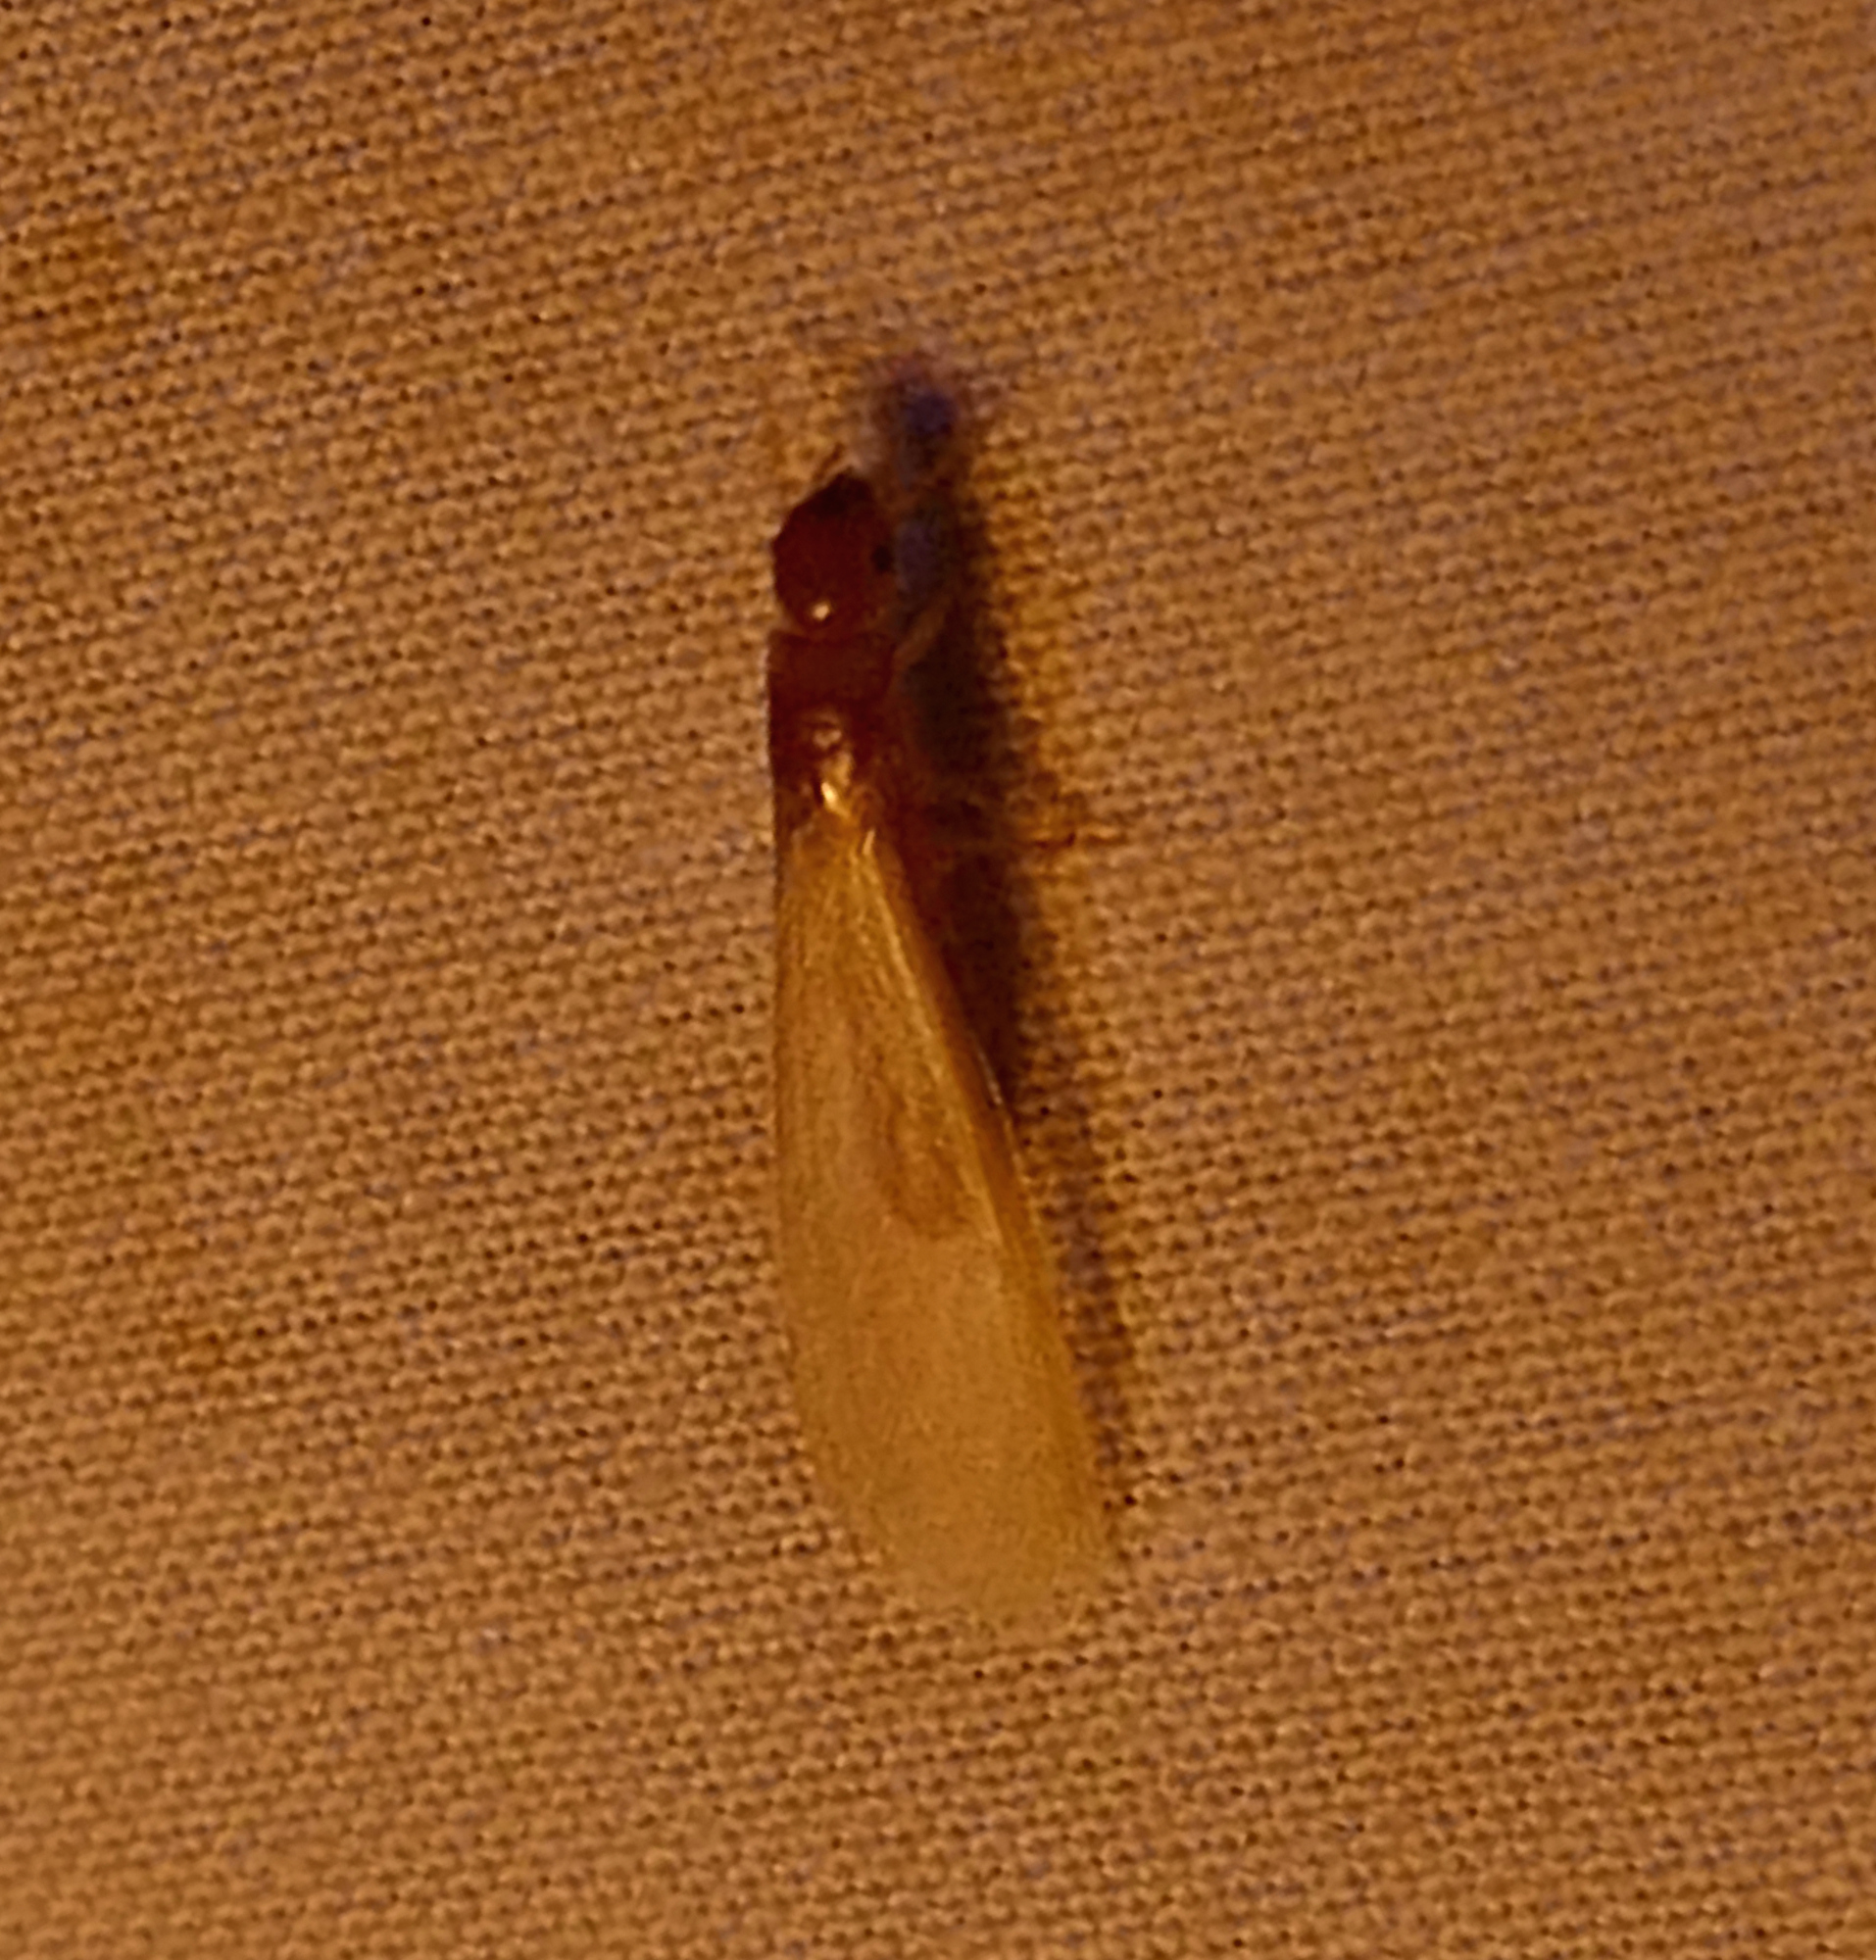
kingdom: Animalia
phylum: Arthropoda
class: Insecta
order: Blattodea
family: Kalotermitidae
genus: Incisitermes
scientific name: Incisitermes snyderi
